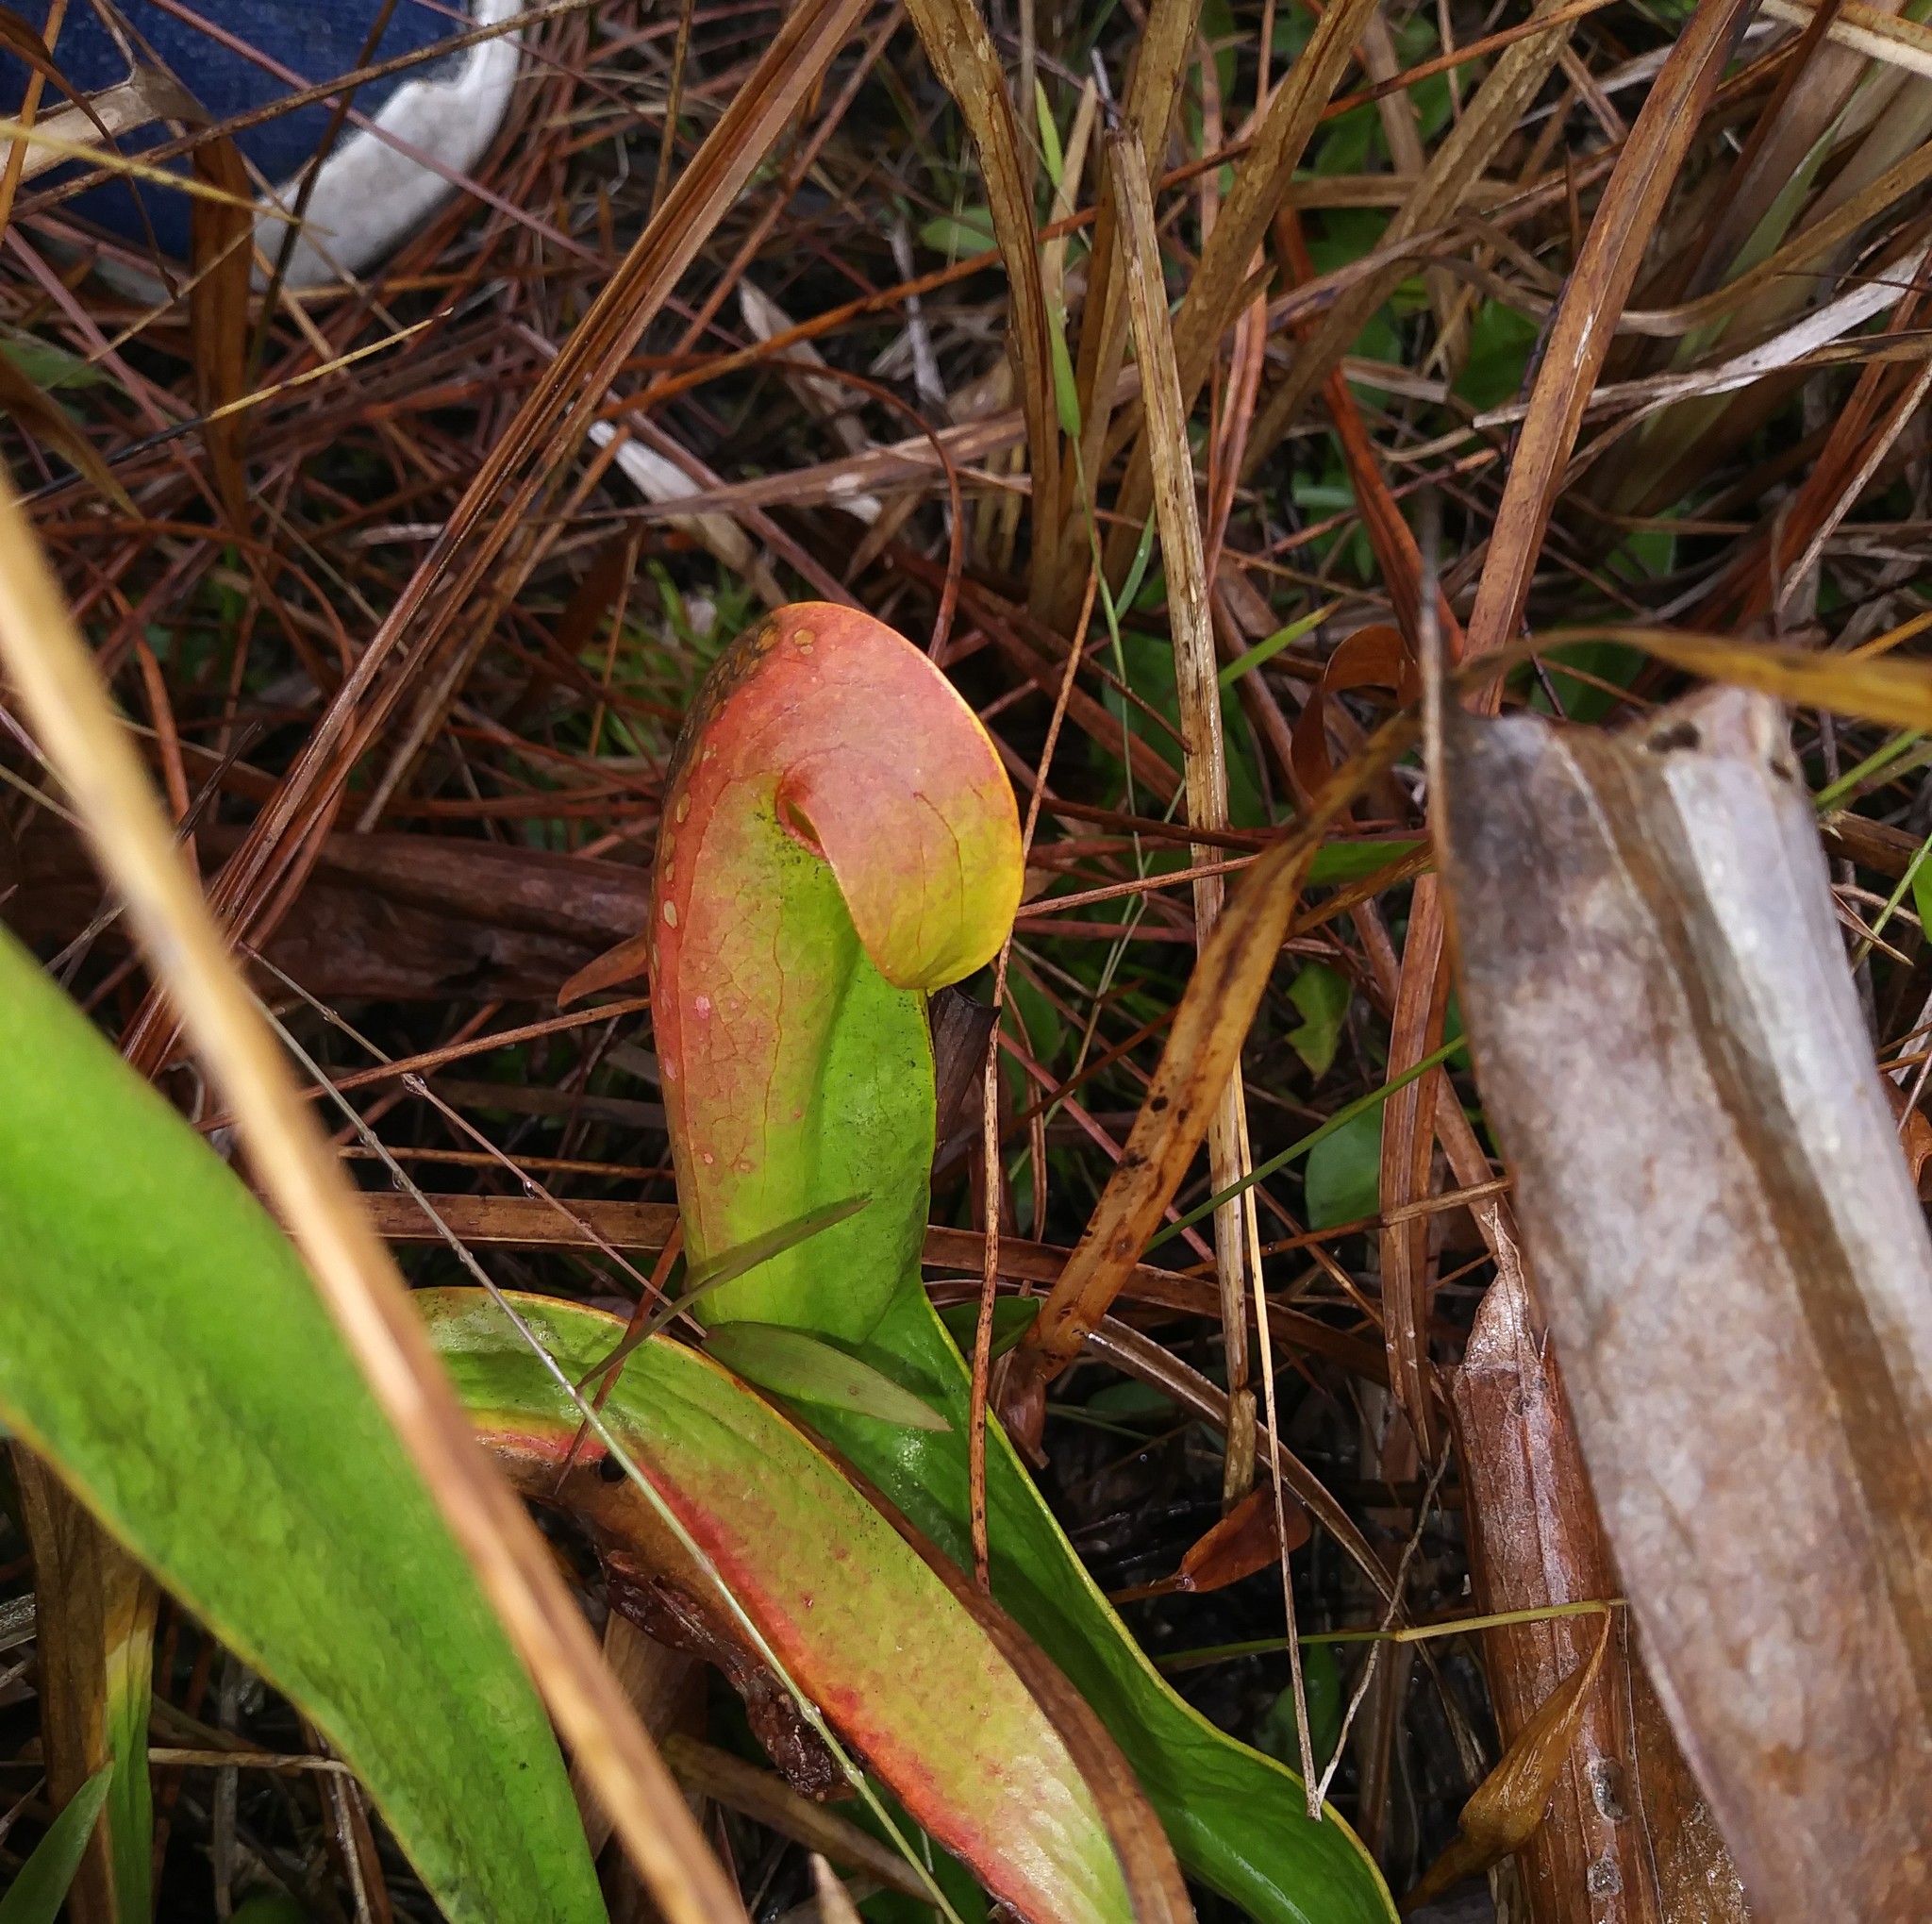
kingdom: Plantae
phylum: Tracheophyta
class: Magnoliopsida
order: Ericales
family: Sarraceniaceae
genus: Sarracenia
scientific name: Sarracenia minor
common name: Rainhat-trumpet
